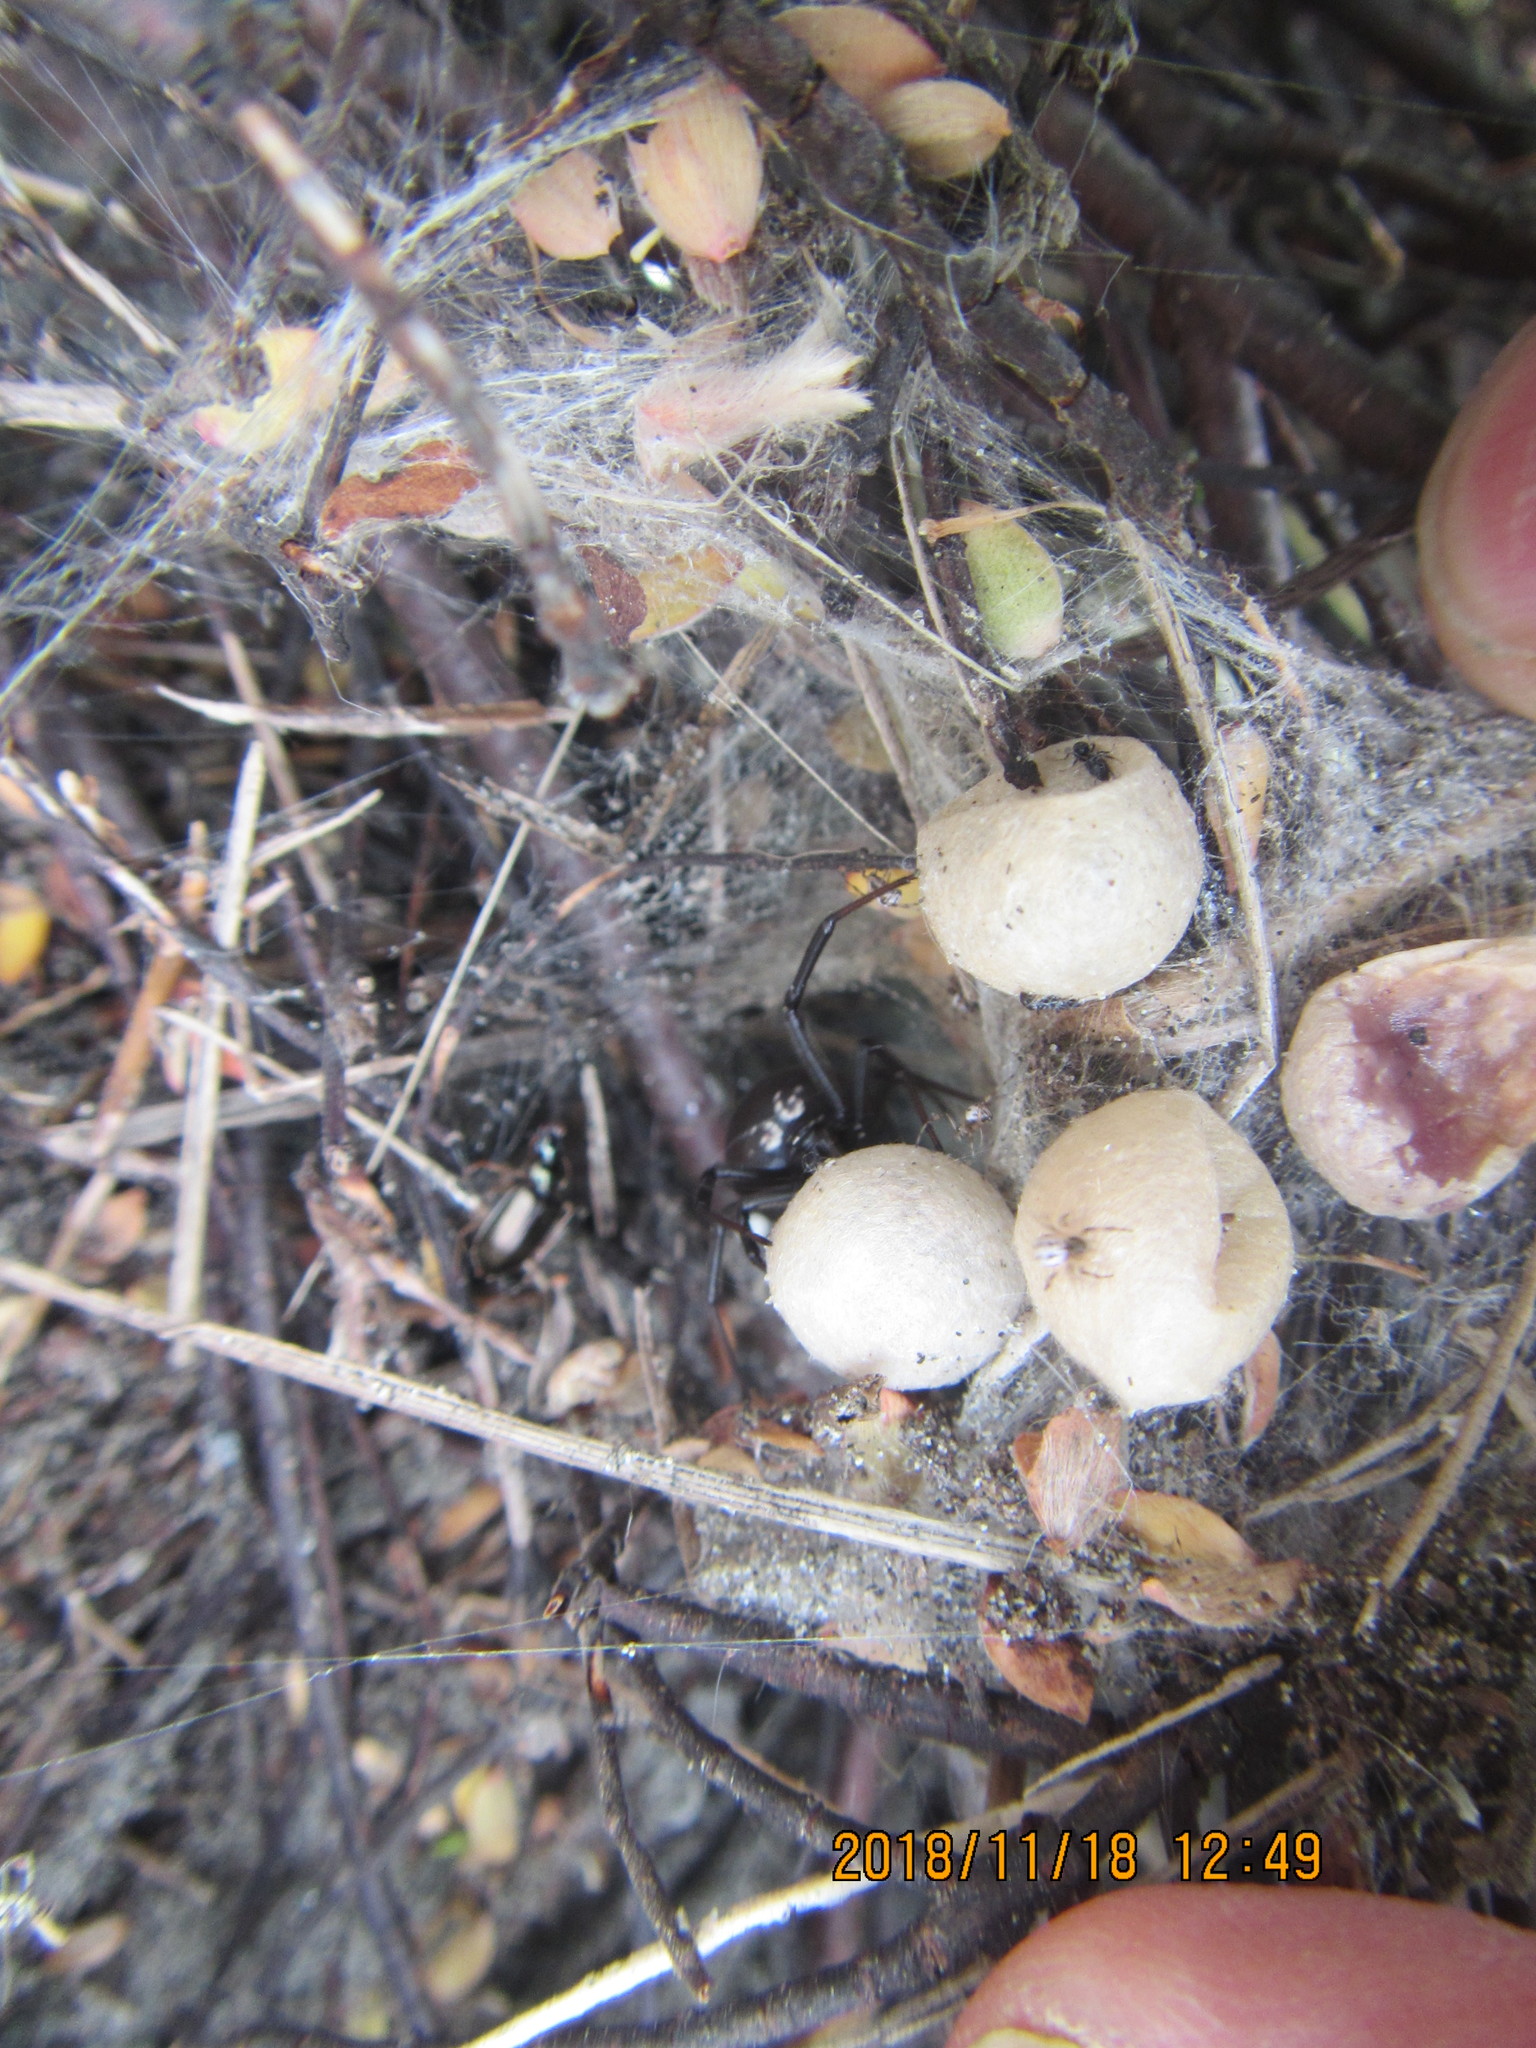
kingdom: Animalia
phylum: Arthropoda
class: Arachnida
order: Araneae
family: Theridiidae
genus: Latrodectus
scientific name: Latrodectus katipo
